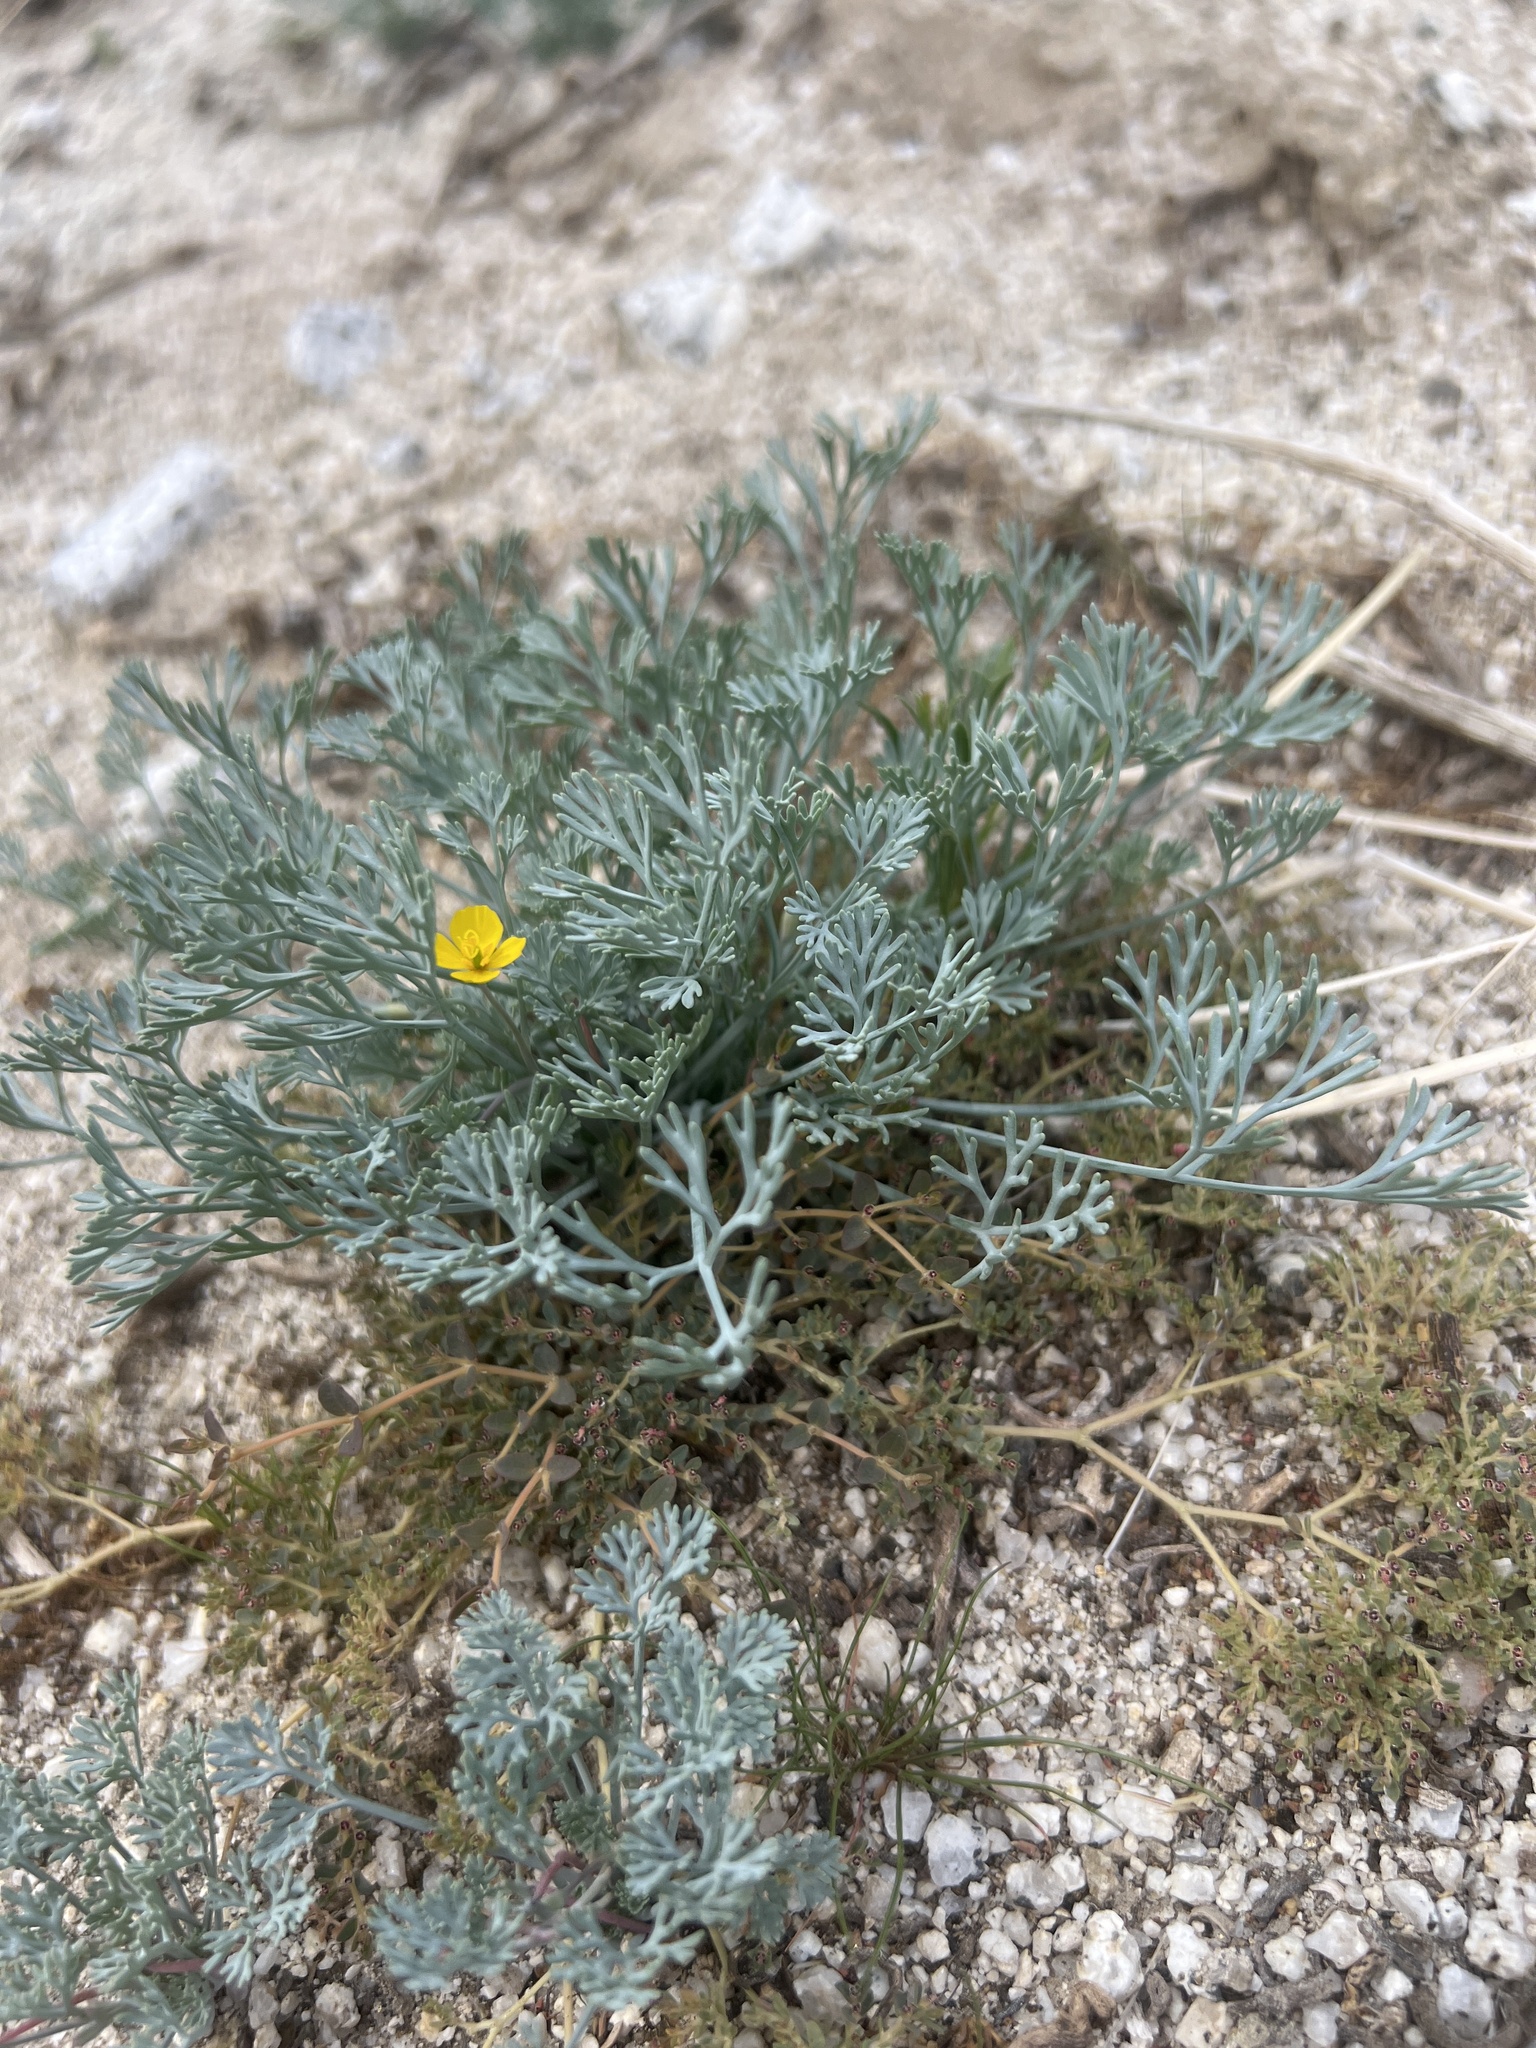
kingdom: Plantae
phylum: Tracheophyta
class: Magnoliopsida
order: Ranunculales
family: Papaveraceae
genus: Eschscholzia
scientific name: Eschscholzia minutiflora
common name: Small-flower california-poppy
